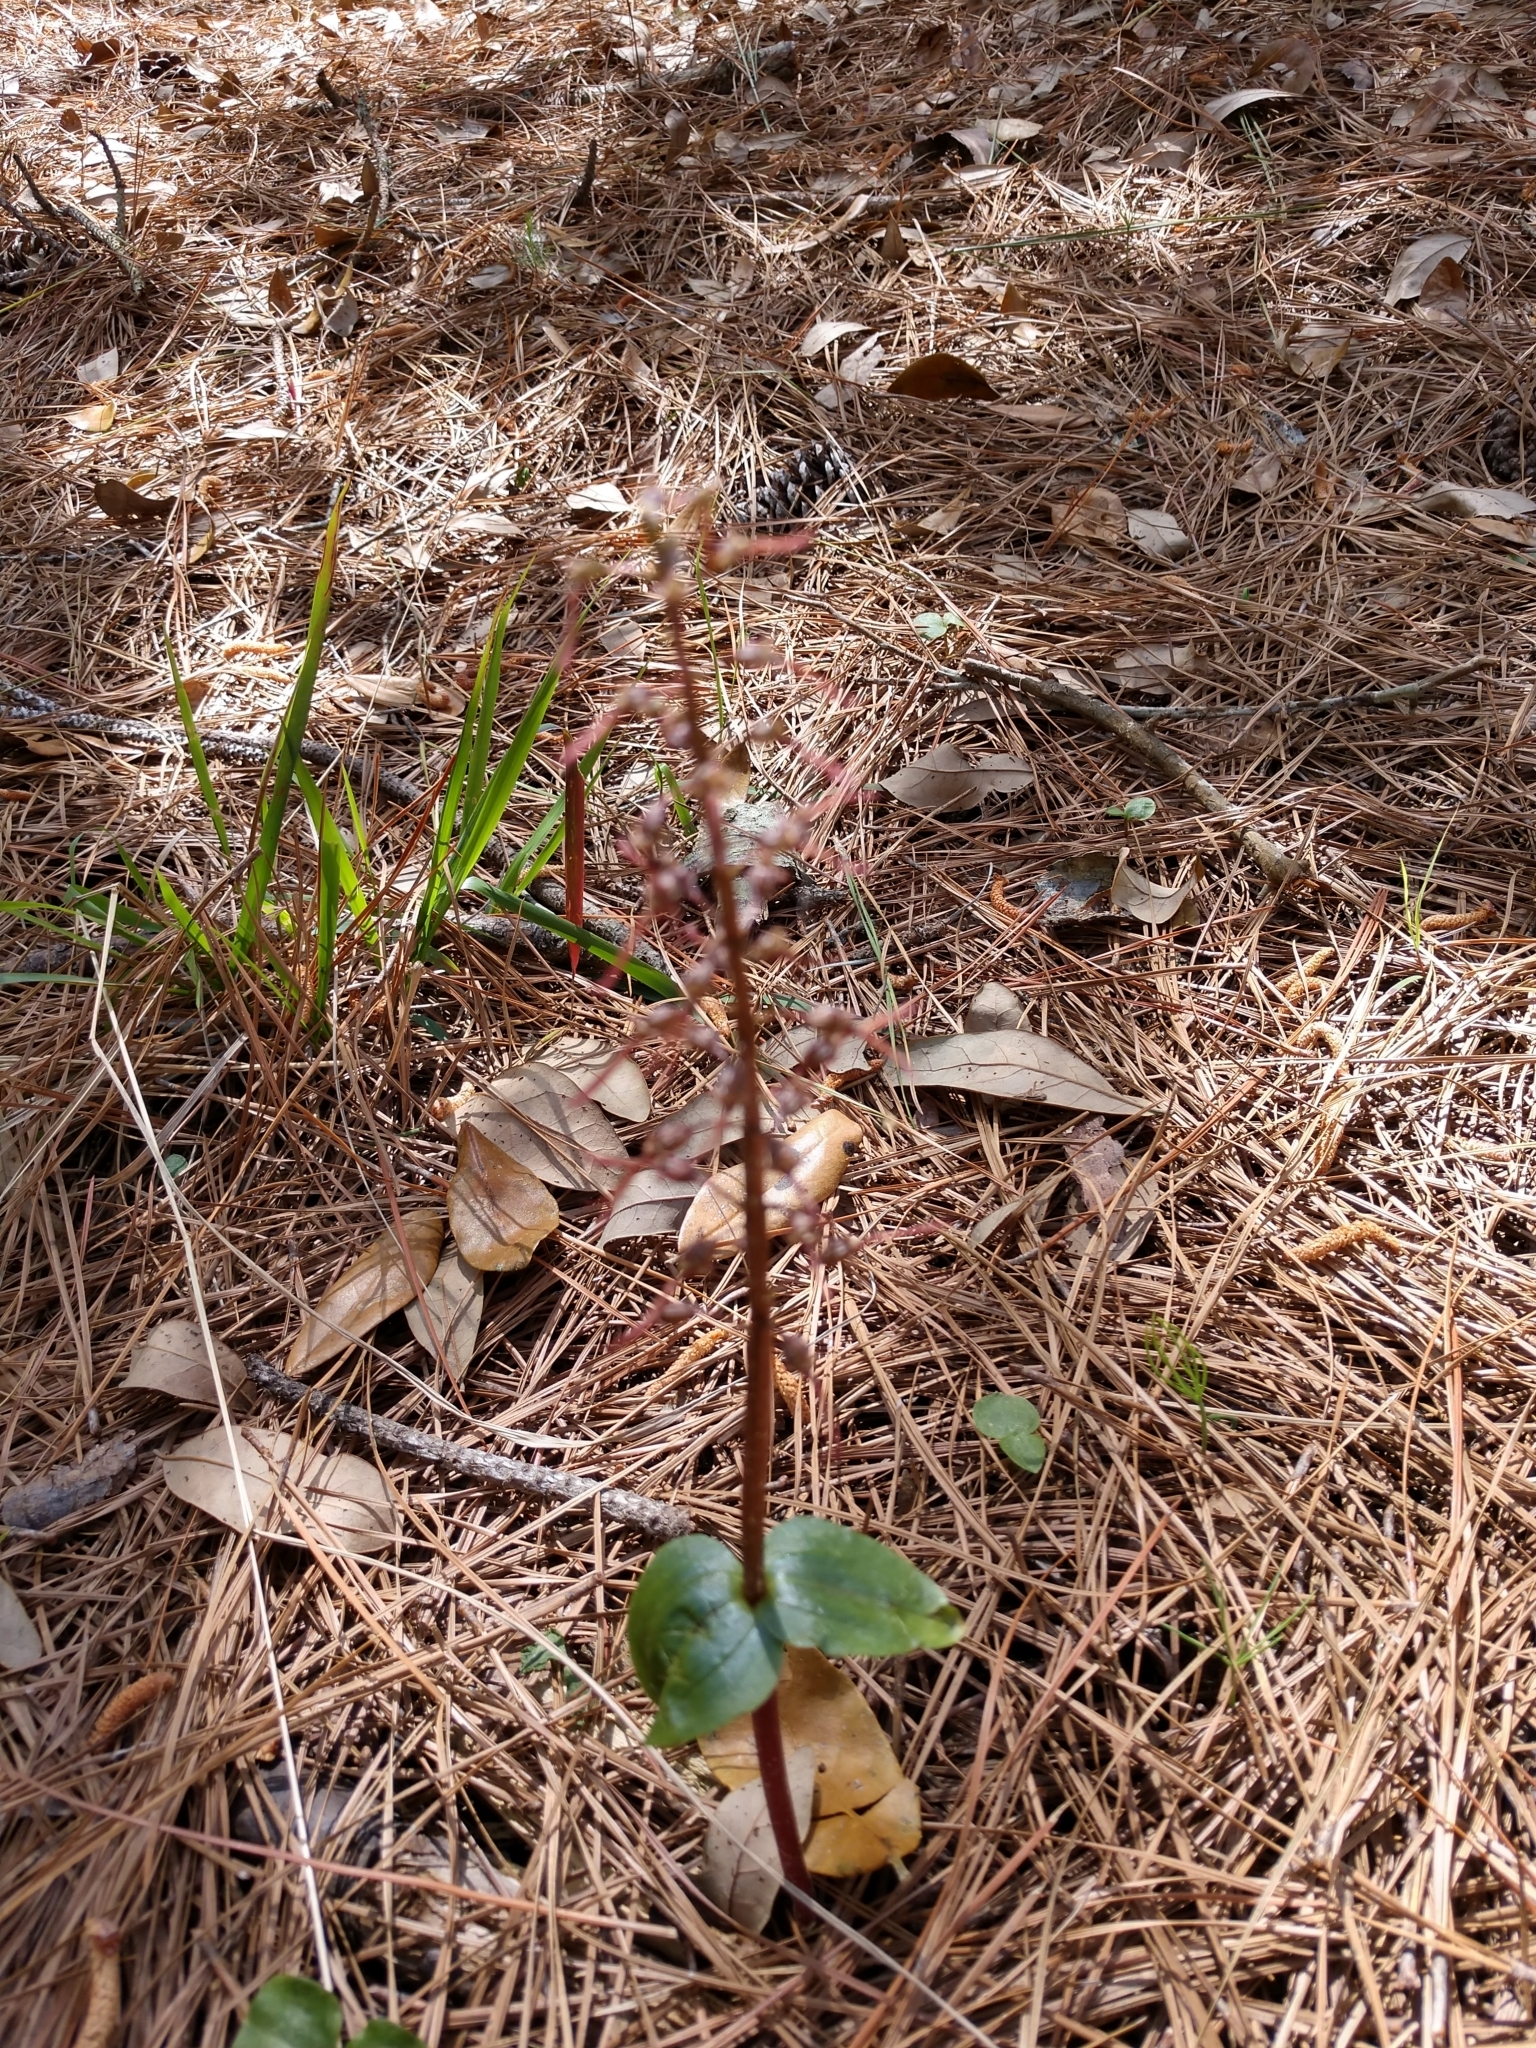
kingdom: Plantae
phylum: Tracheophyta
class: Liliopsida
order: Asparagales
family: Orchidaceae
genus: Neottia
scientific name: Neottia bifolia
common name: Southern twayblade
